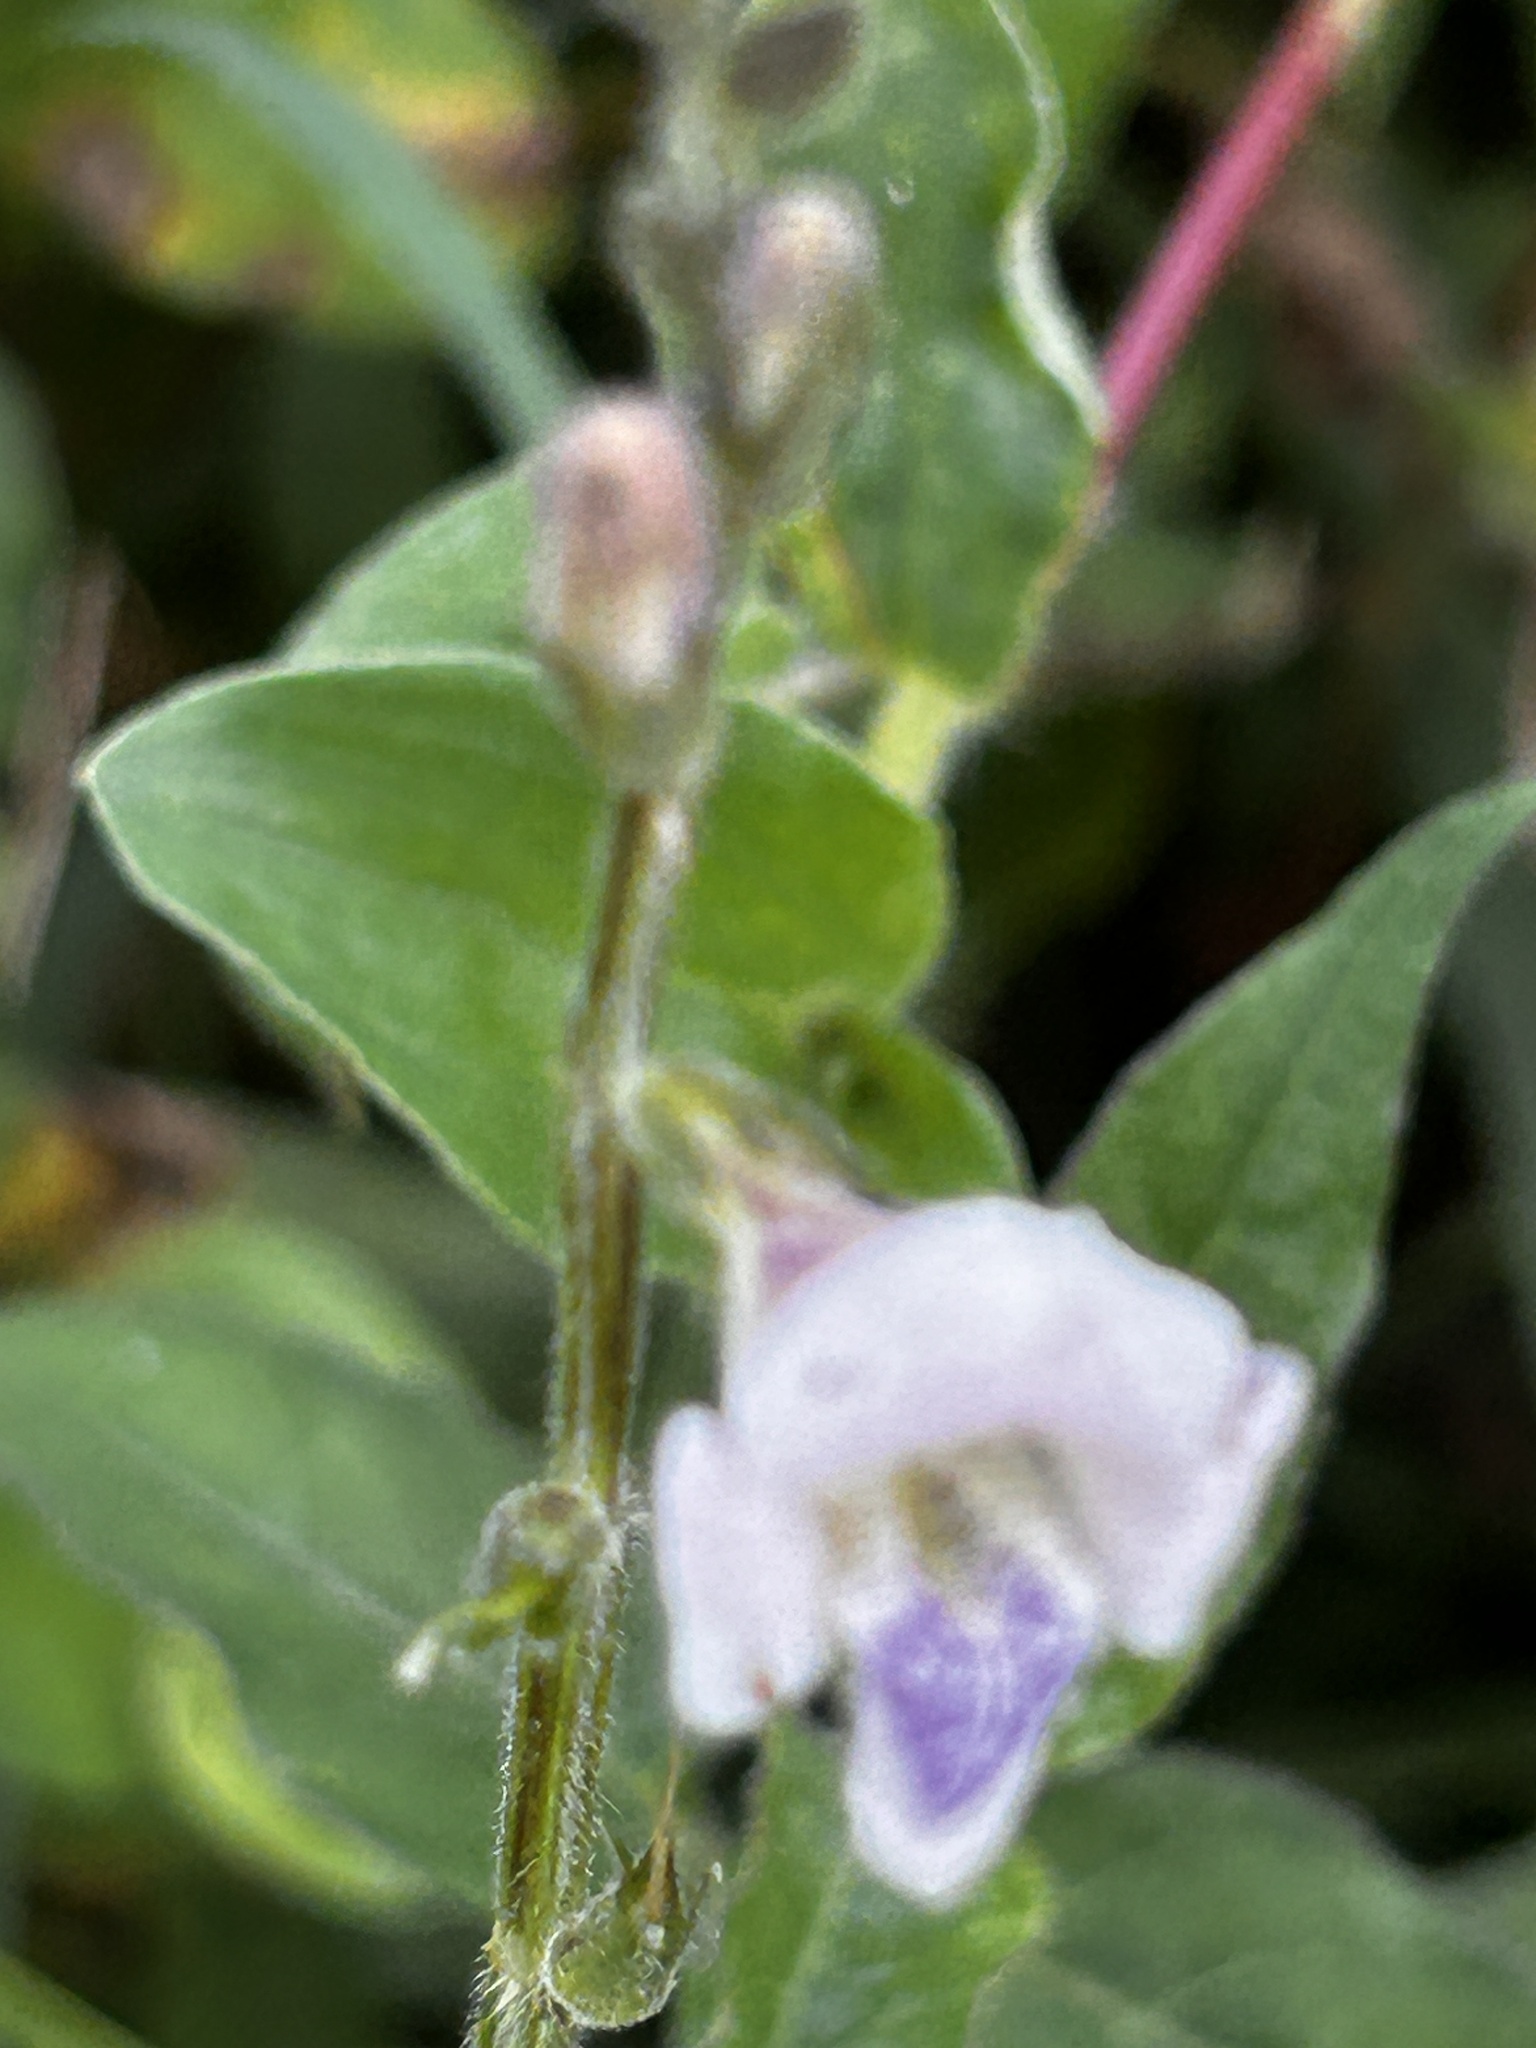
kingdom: Plantae
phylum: Tracheophyta
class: Magnoliopsida
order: Lamiales
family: Acanthaceae
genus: Asystasia
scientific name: Asystasia intrusa
